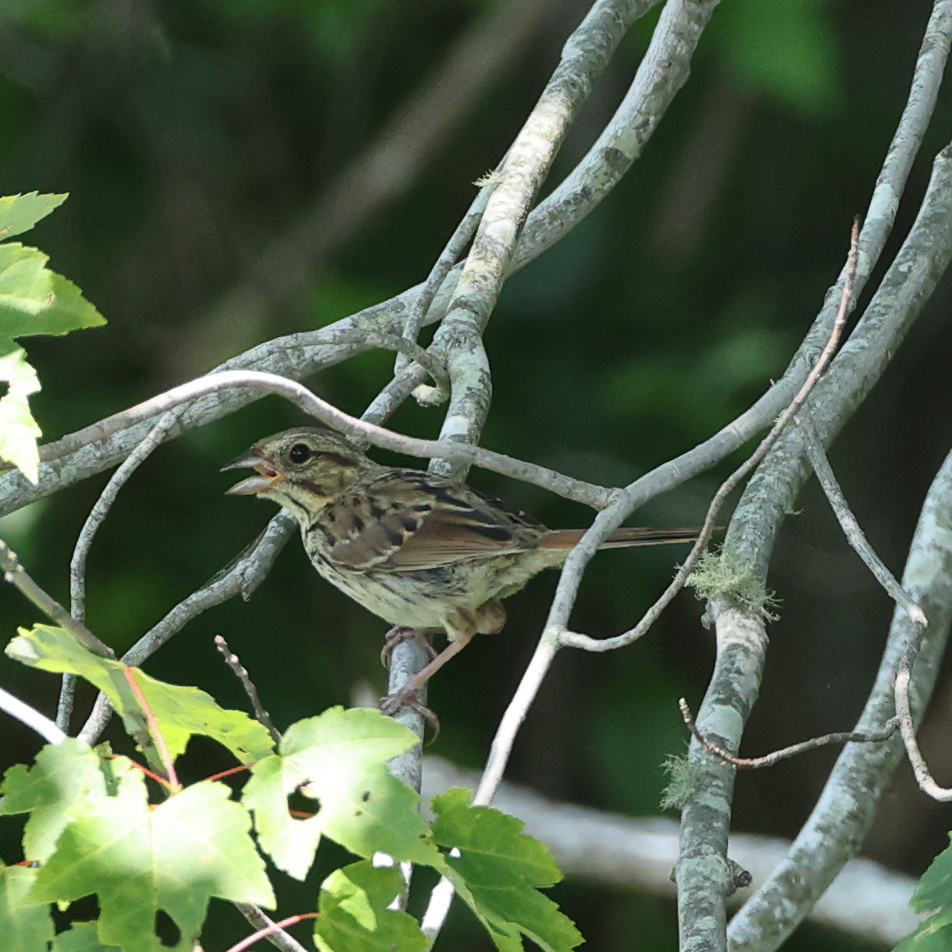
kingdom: Animalia
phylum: Chordata
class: Aves
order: Passeriformes
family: Passerellidae
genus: Melospiza
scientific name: Melospiza melodia
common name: Song sparrow
